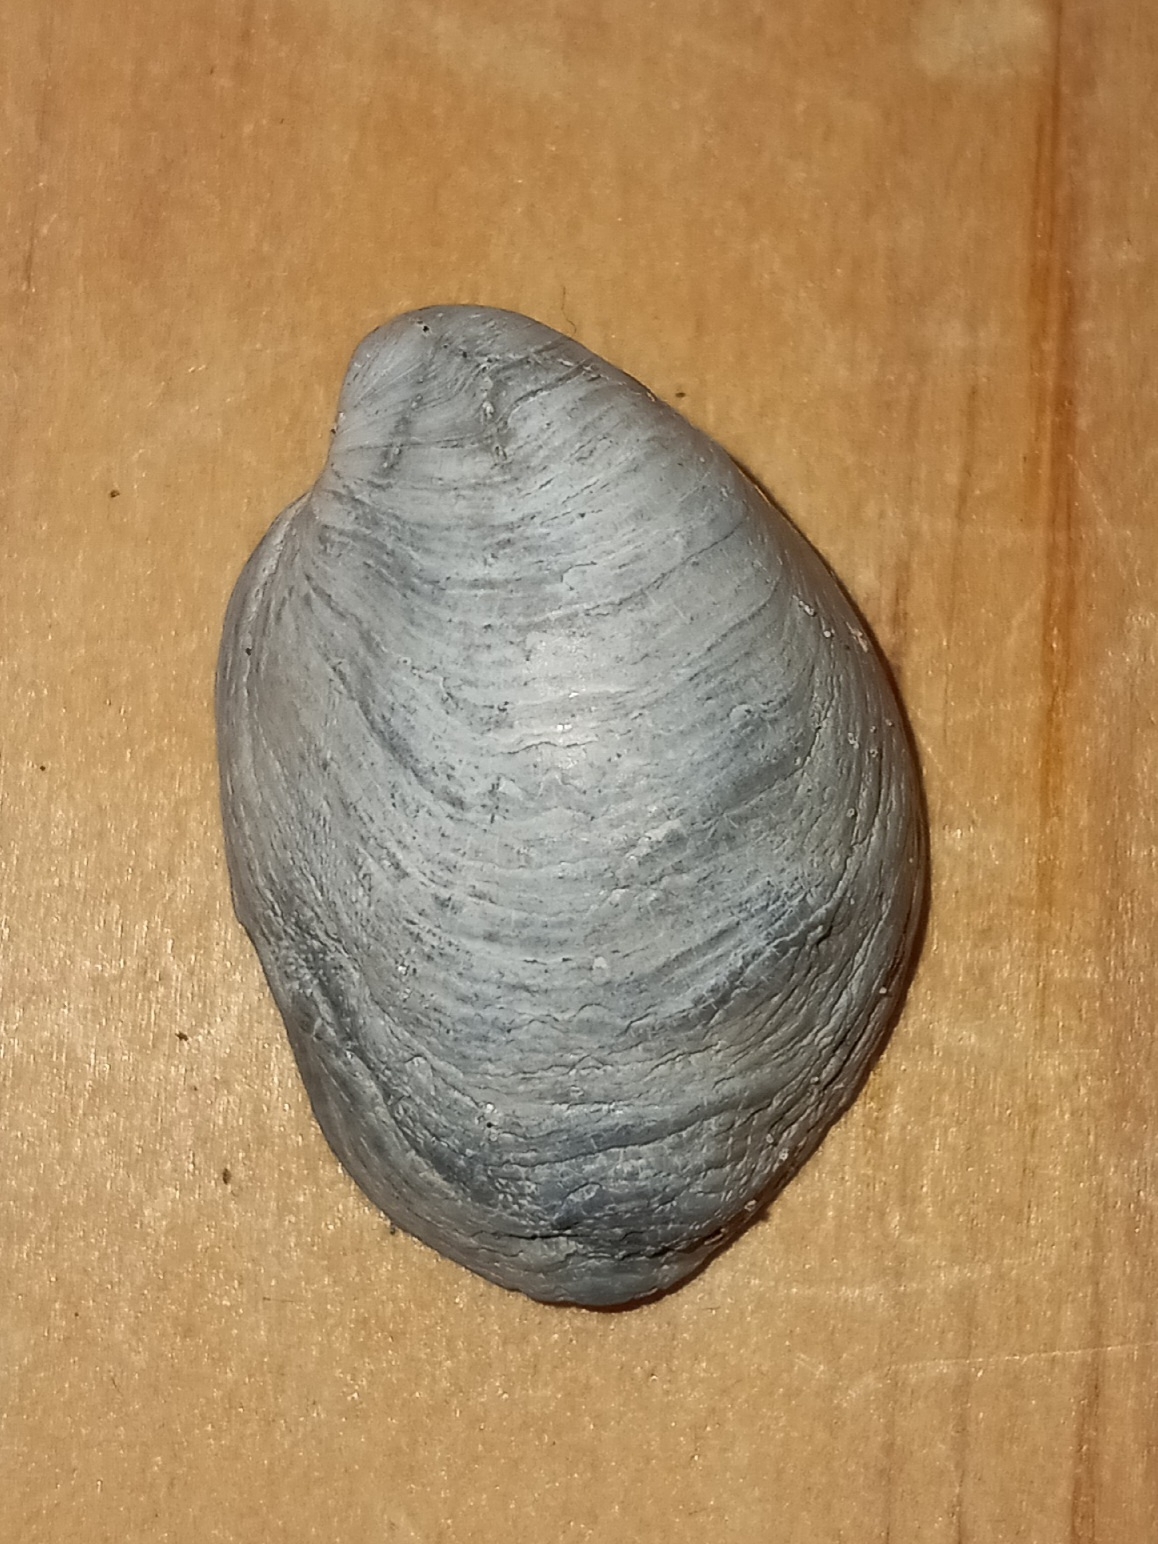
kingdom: Animalia
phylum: Mollusca
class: Gastropoda
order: Littorinimorpha
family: Calyptraeidae
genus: Crepidula
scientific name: Crepidula fornicata
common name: Slipper limpet
